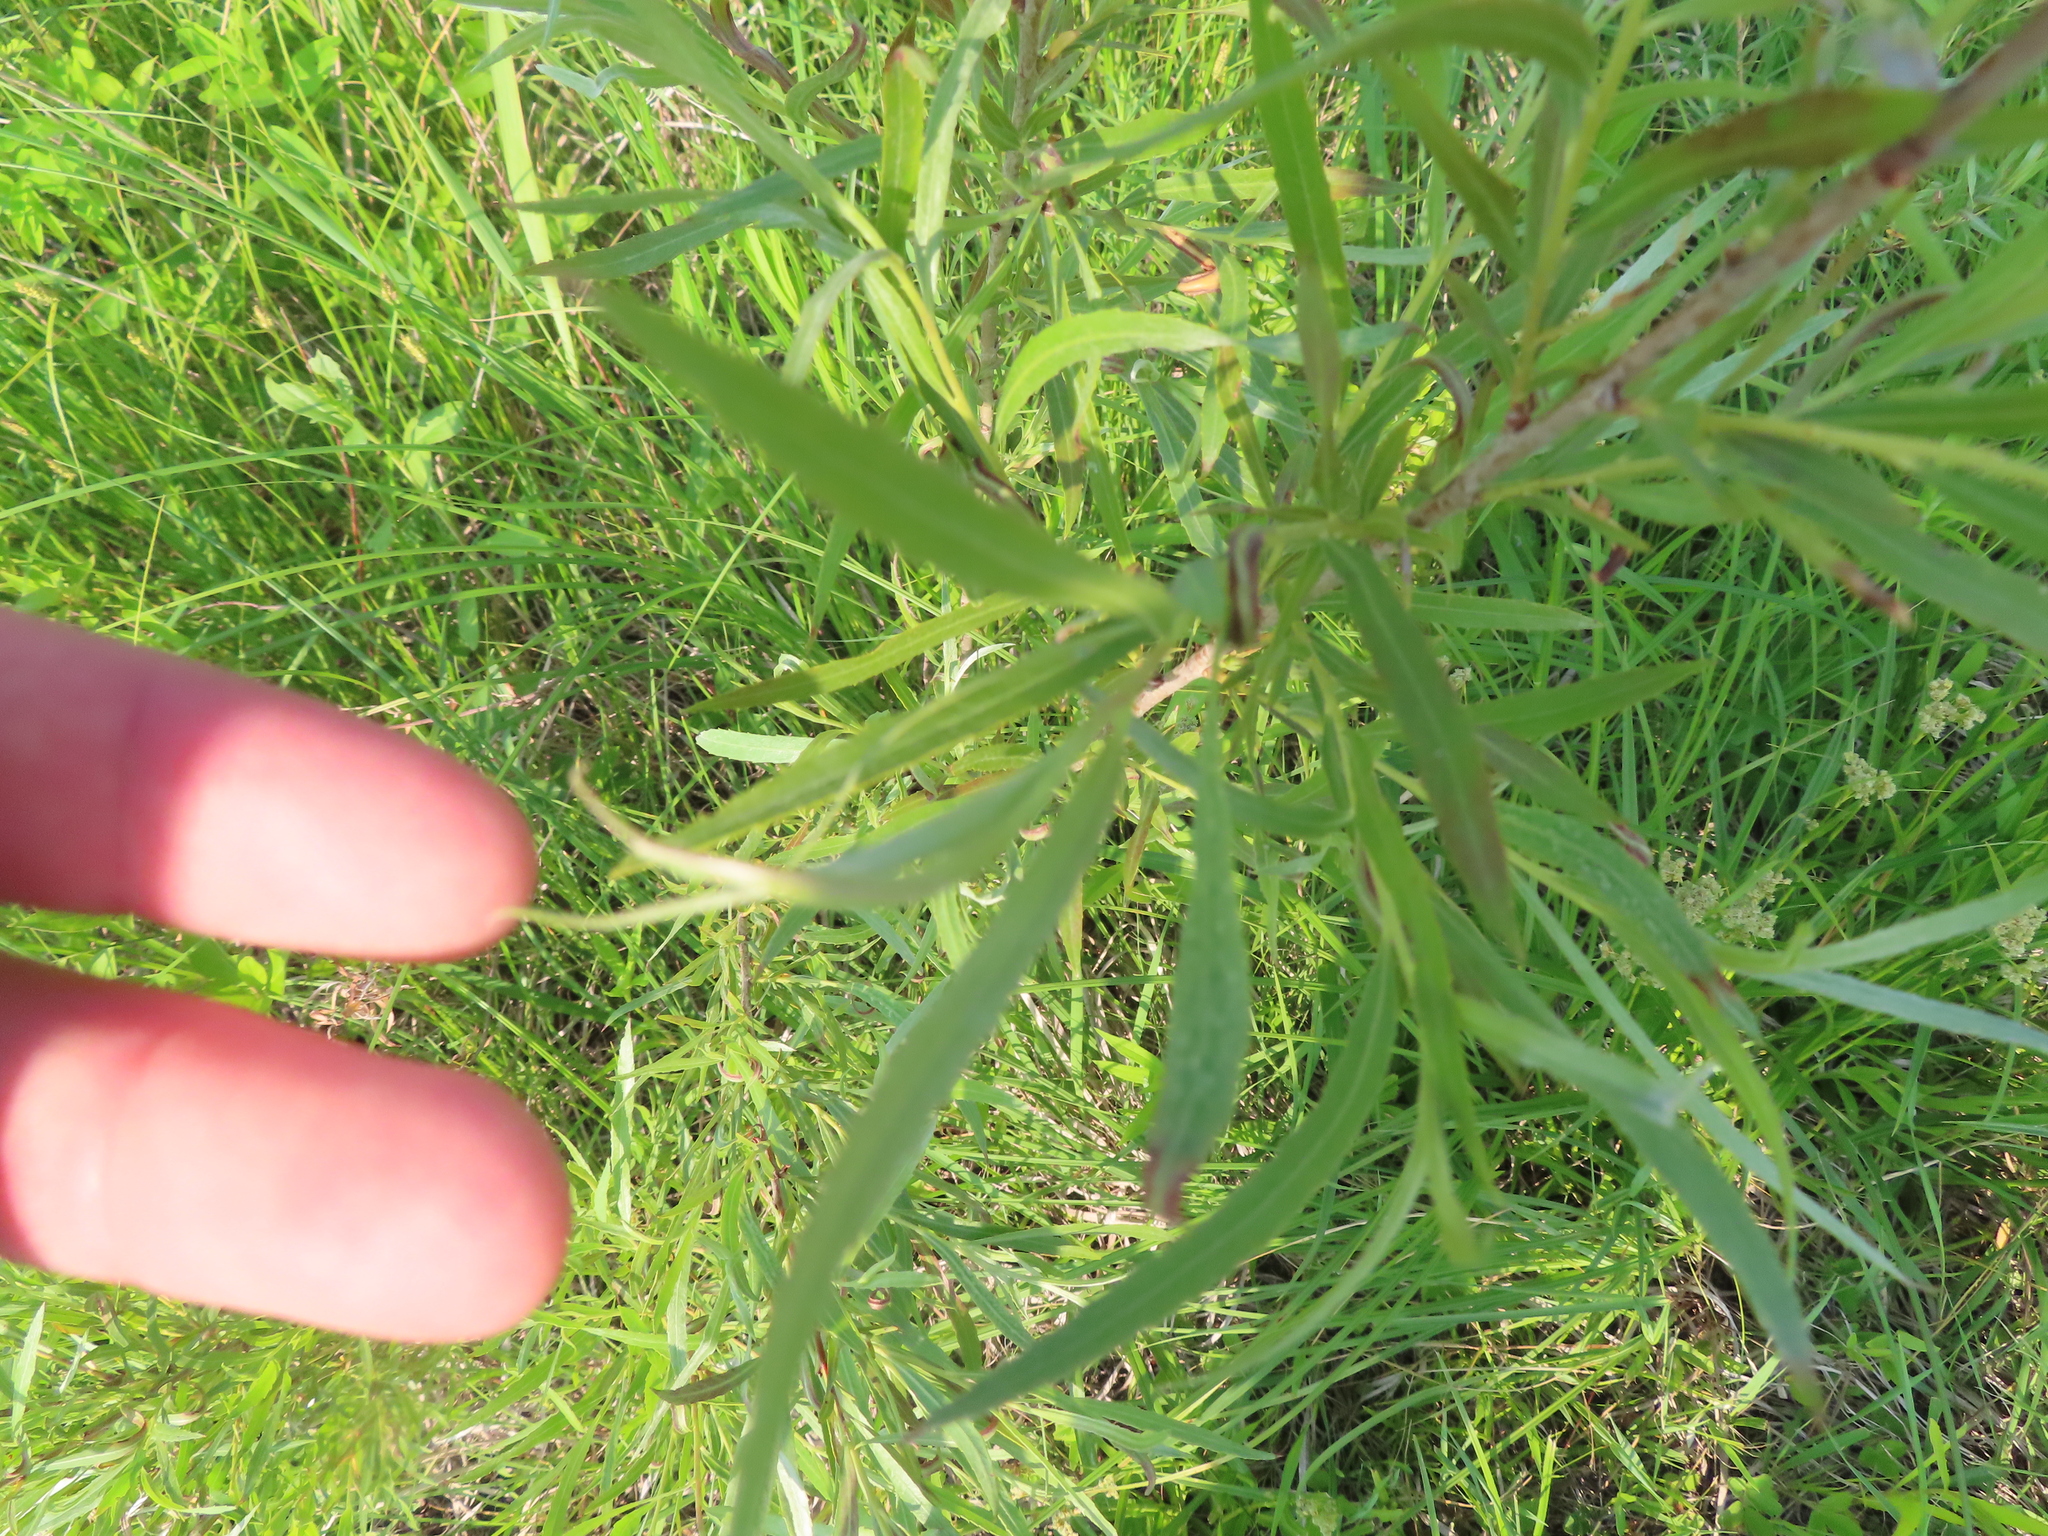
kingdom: Plantae
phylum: Tracheophyta
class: Magnoliopsida
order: Malpighiales
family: Salicaceae
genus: Salix
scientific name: Salix interior
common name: Sandbar willow
